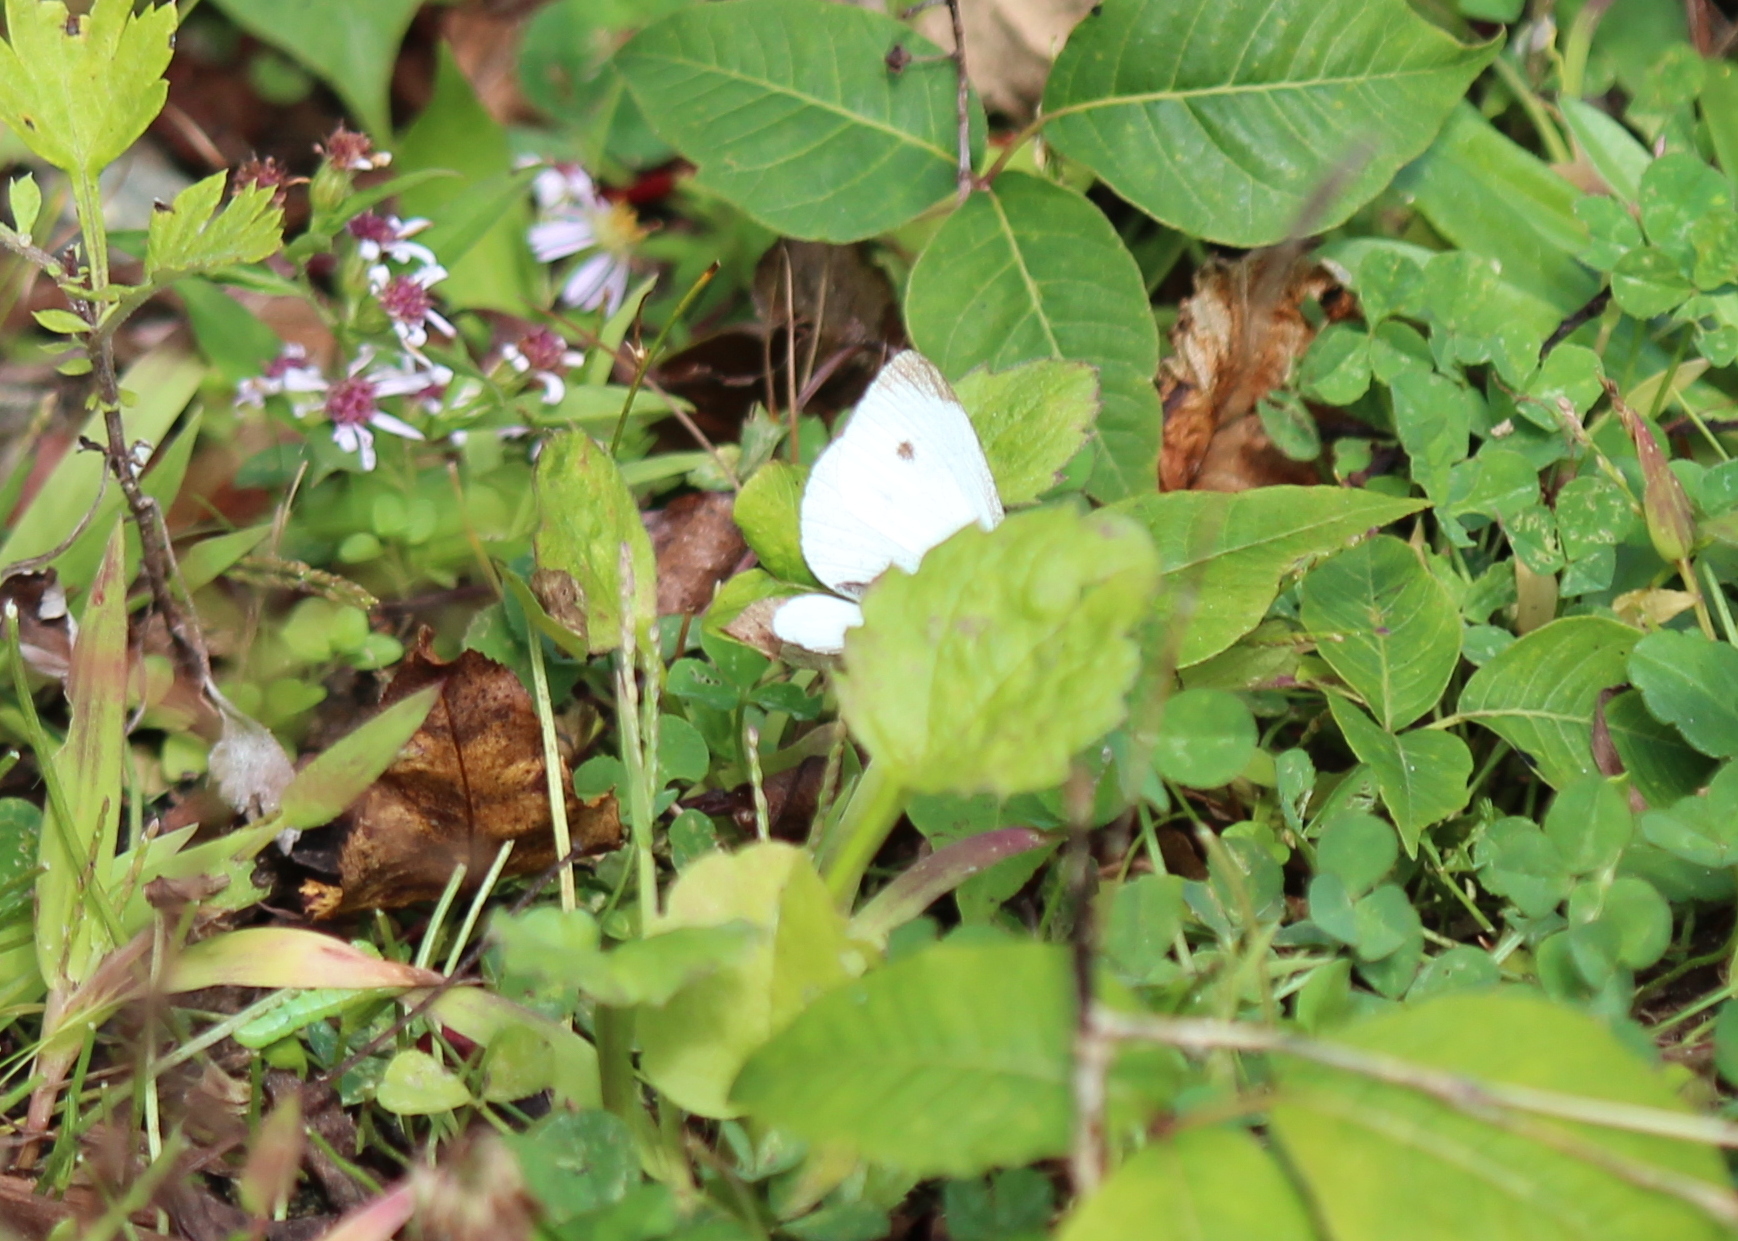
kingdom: Animalia
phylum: Arthropoda
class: Insecta
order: Lepidoptera
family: Pieridae
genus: Pieris
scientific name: Pieris rapae
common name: Small white
